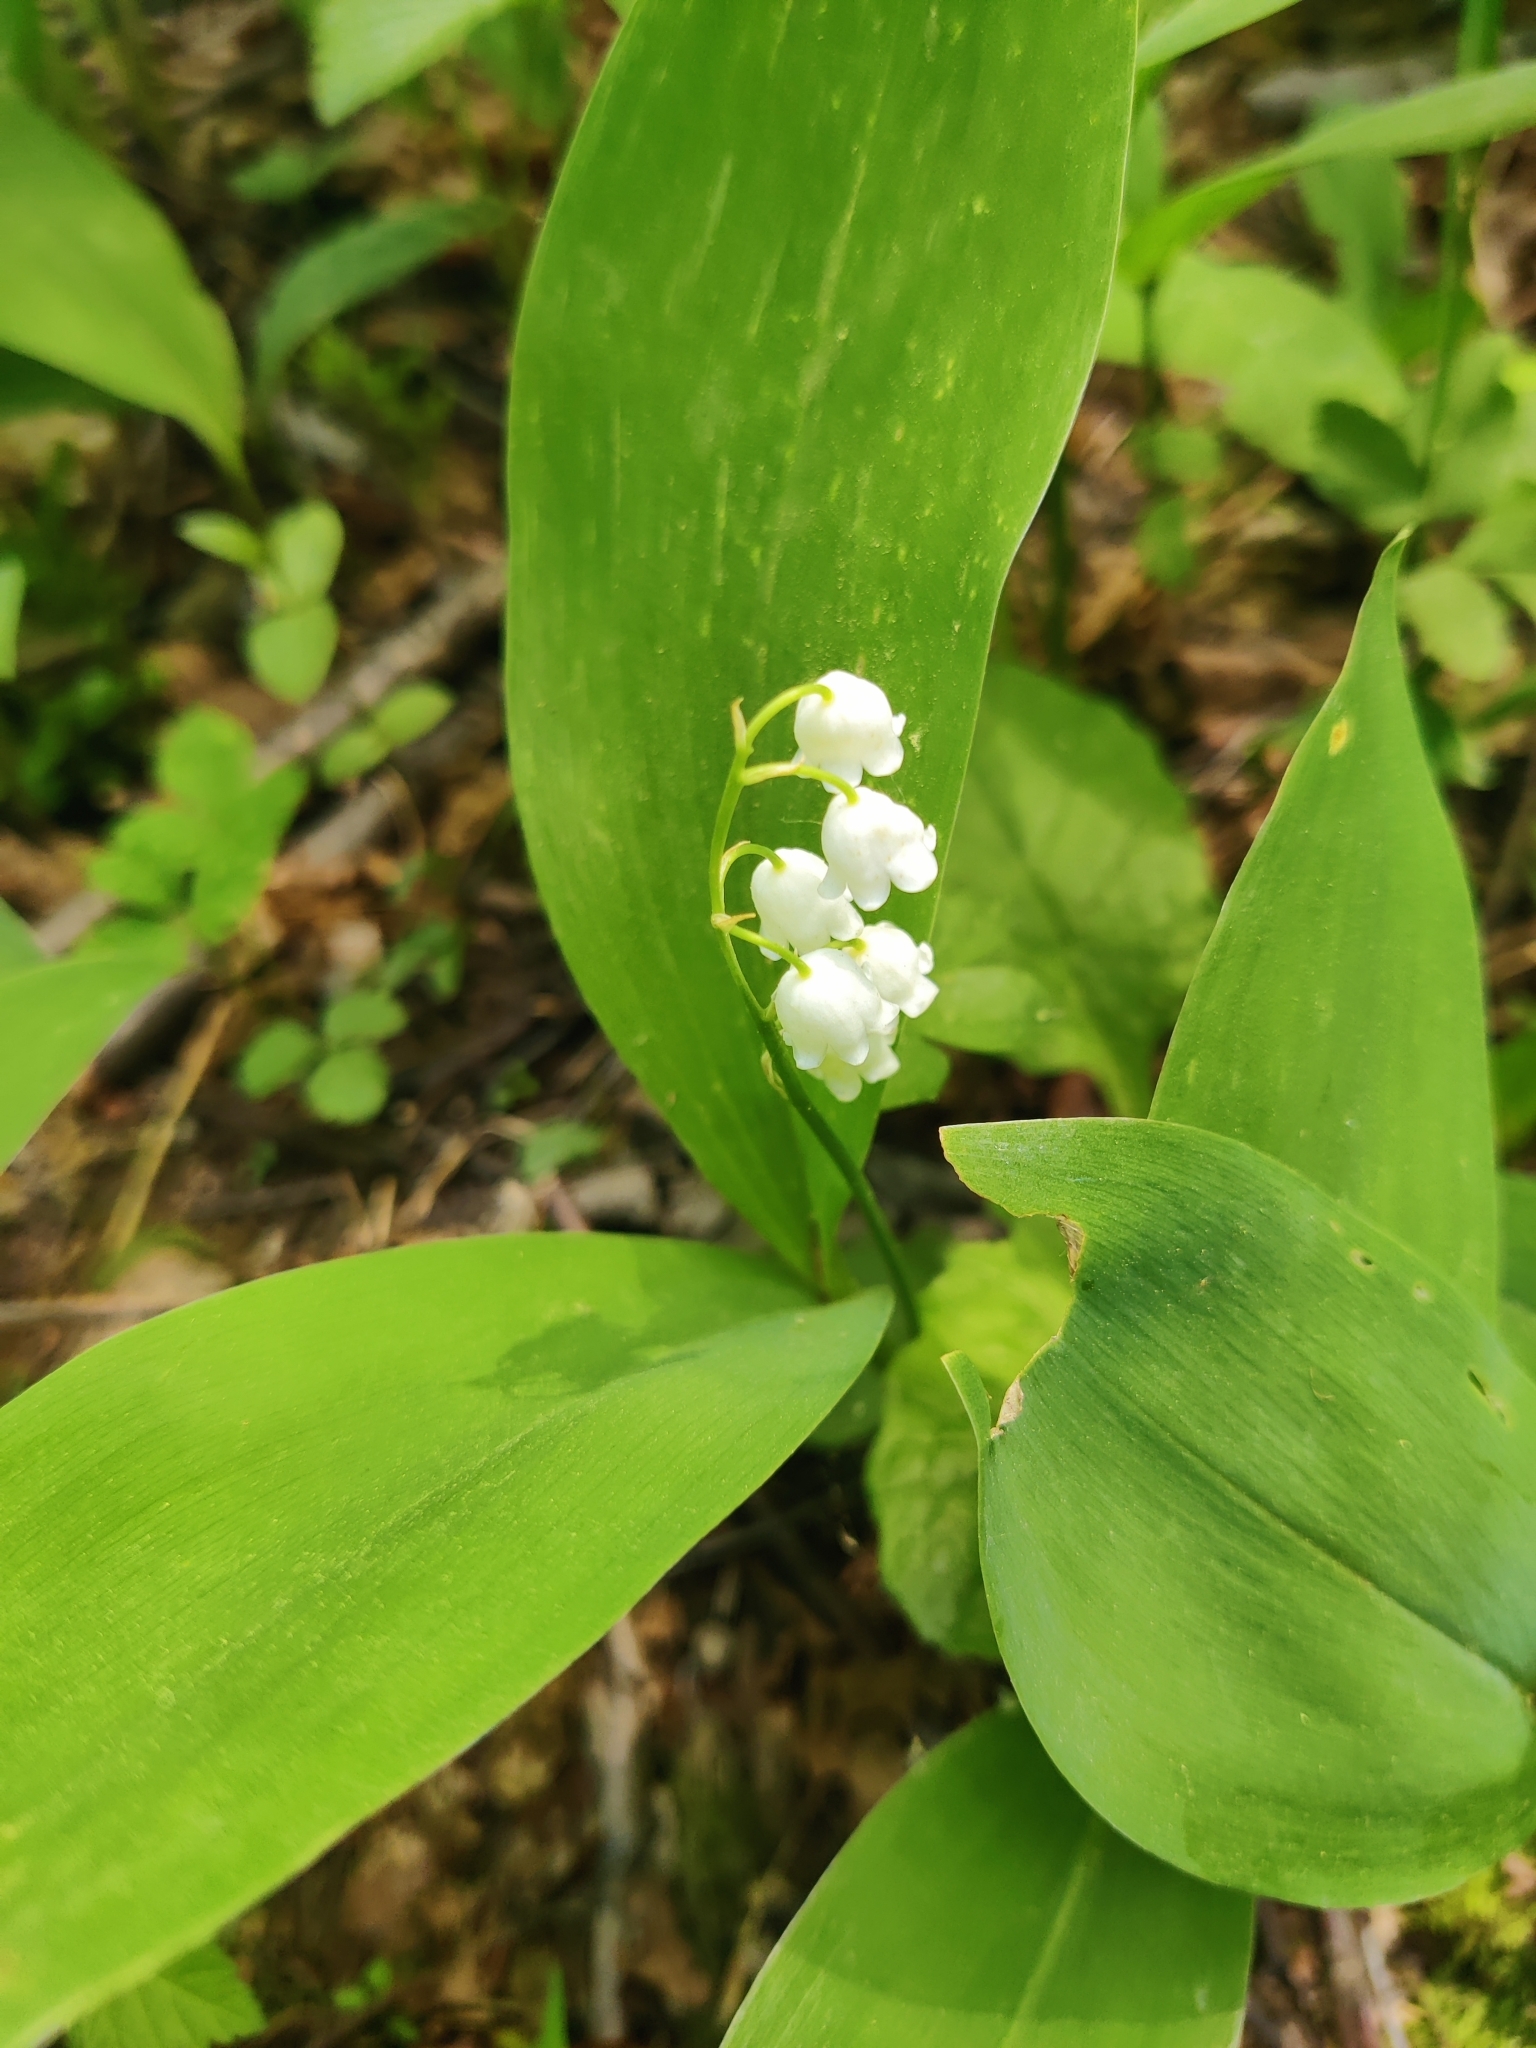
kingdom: Plantae
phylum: Tracheophyta
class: Liliopsida
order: Asparagales
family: Asparagaceae
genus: Convallaria
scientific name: Convallaria majalis
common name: Lily-of-the-valley
